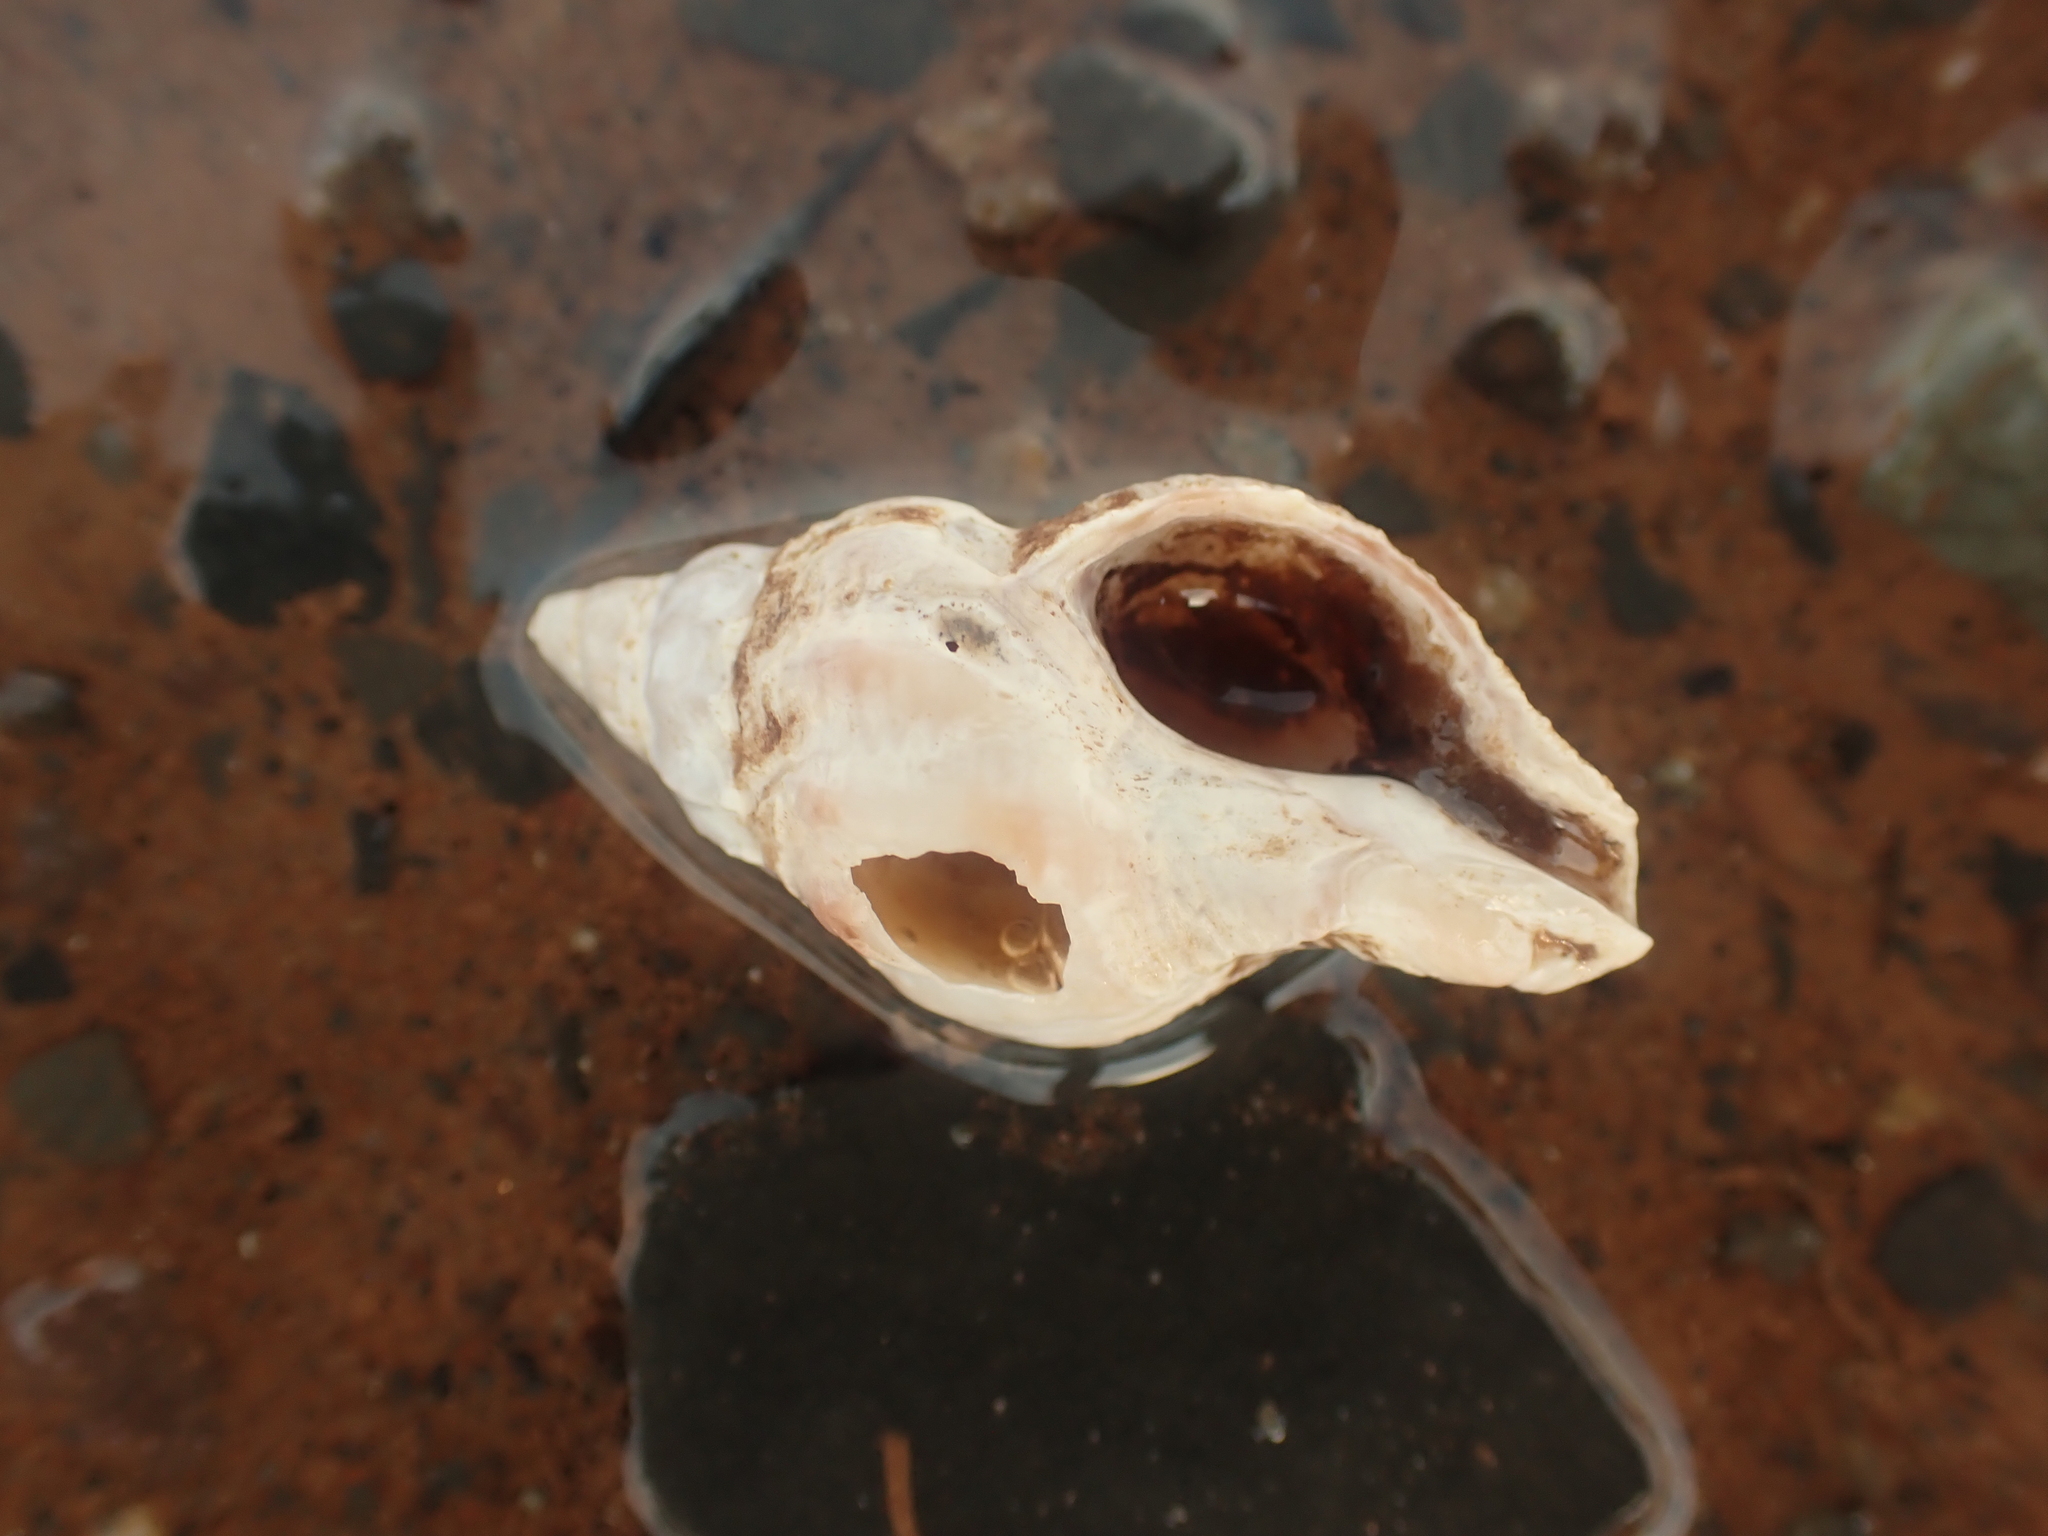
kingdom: Animalia
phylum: Mollusca
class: Gastropoda
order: Neogastropoda
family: Muricidae
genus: Urosalpinx
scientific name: Urosalpinx cinerea
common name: American sting winkle
